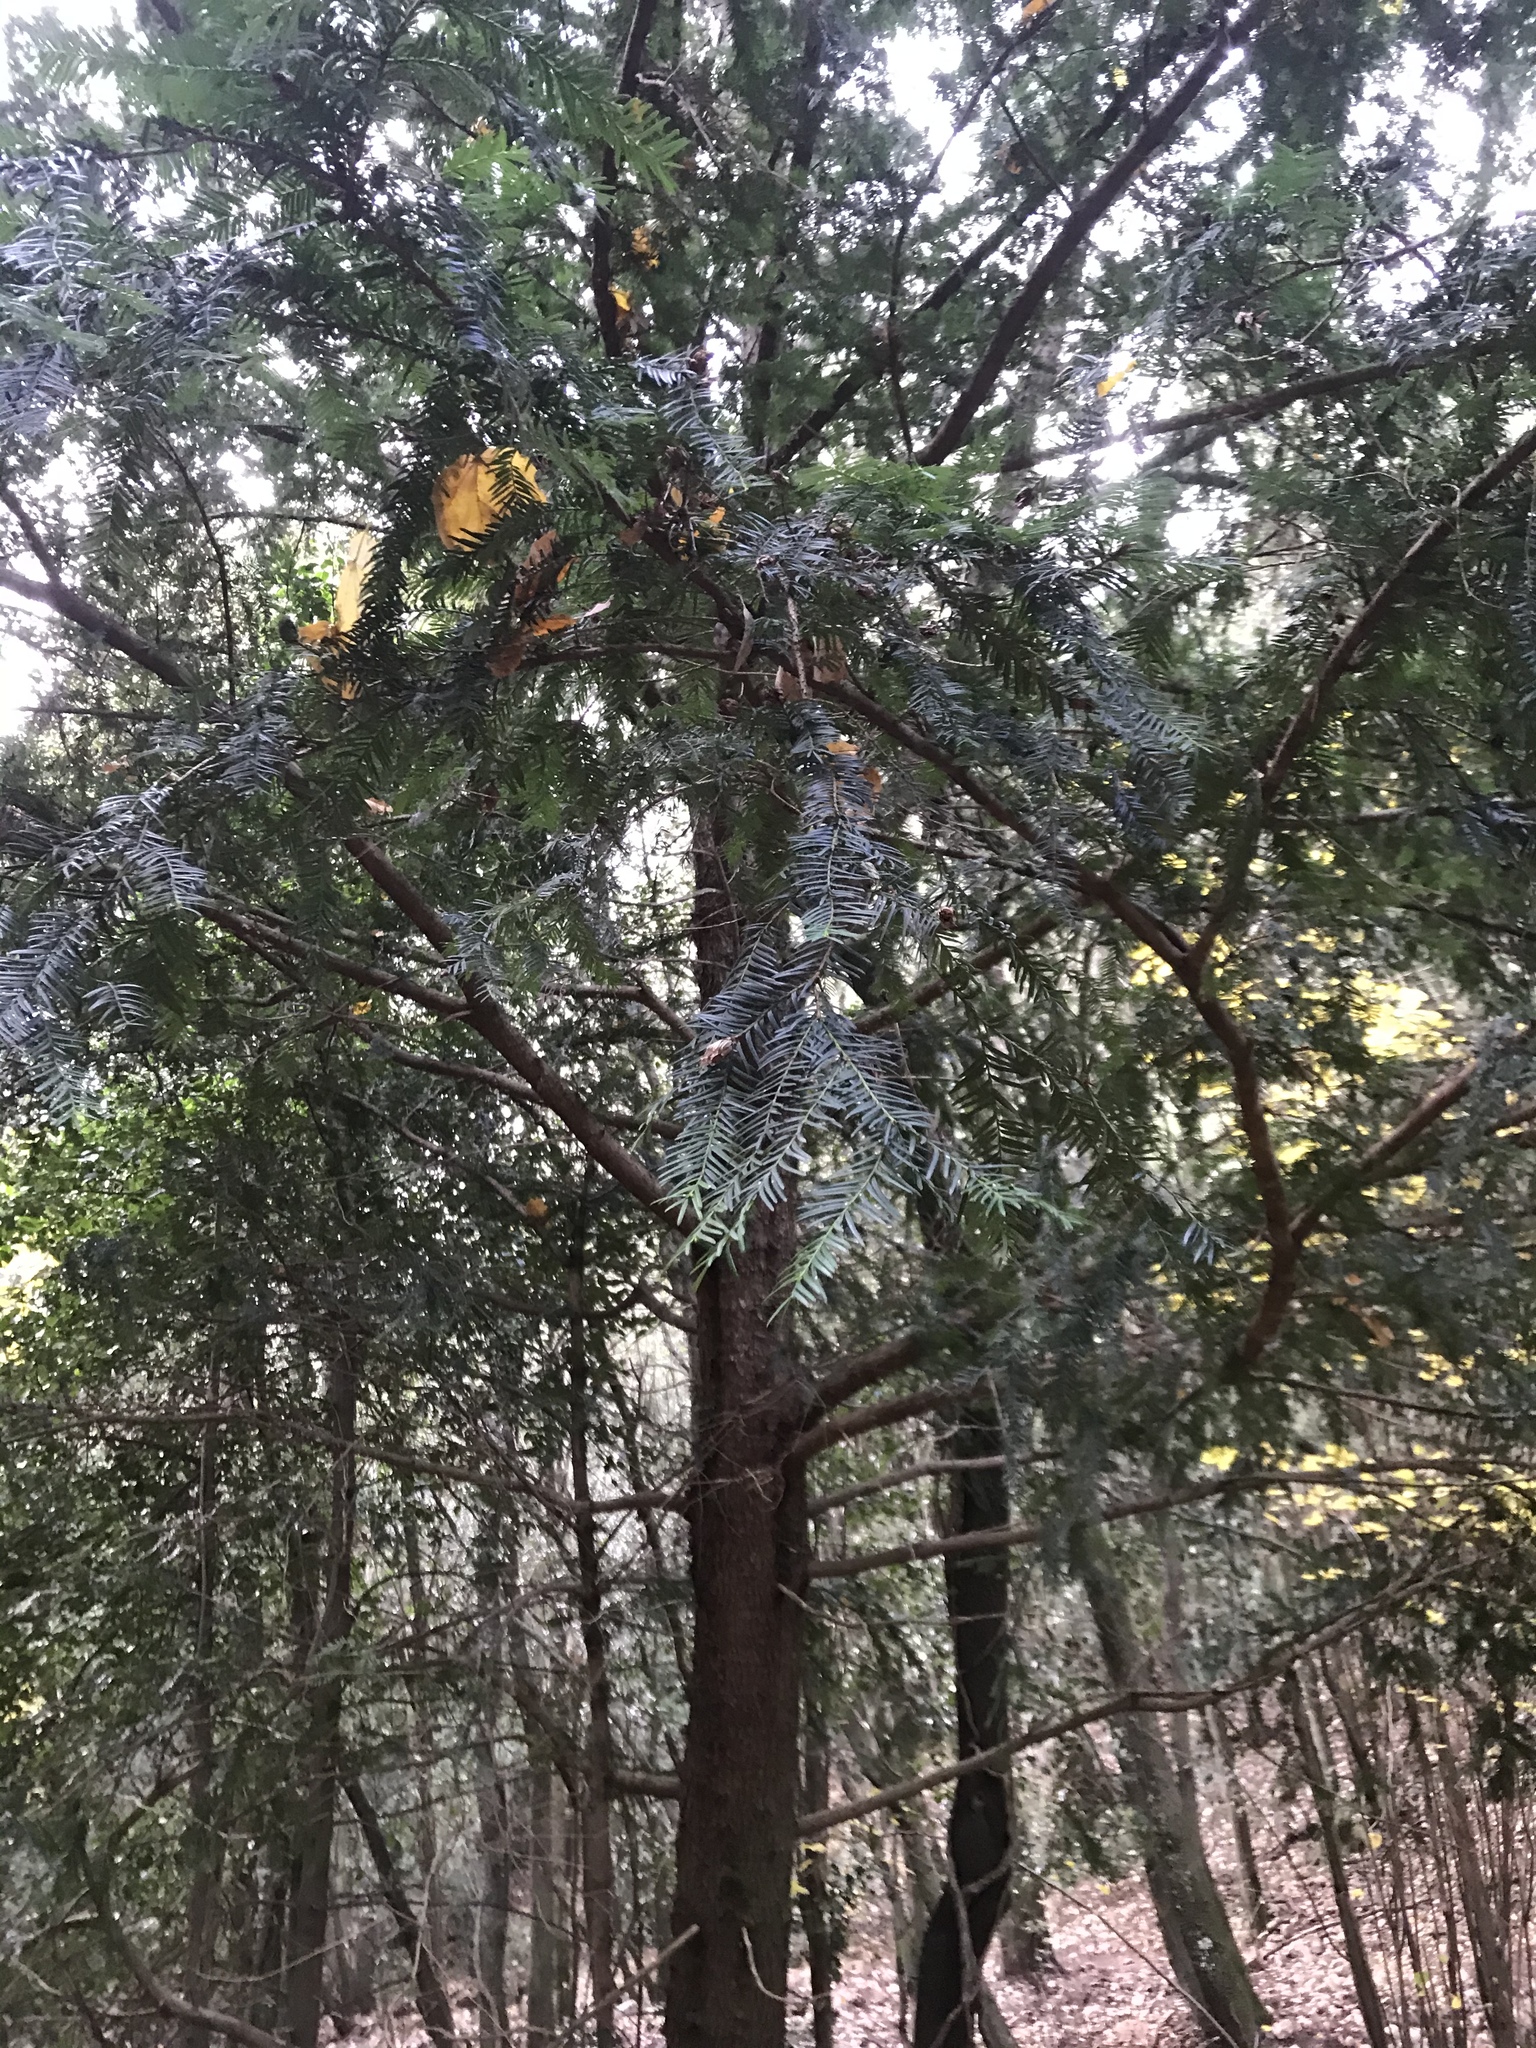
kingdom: Plantae
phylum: Tracheophyta
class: Pinopsida
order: Pinales
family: Taxaceae
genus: Taxus
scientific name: Taxus baccata
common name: Yew
